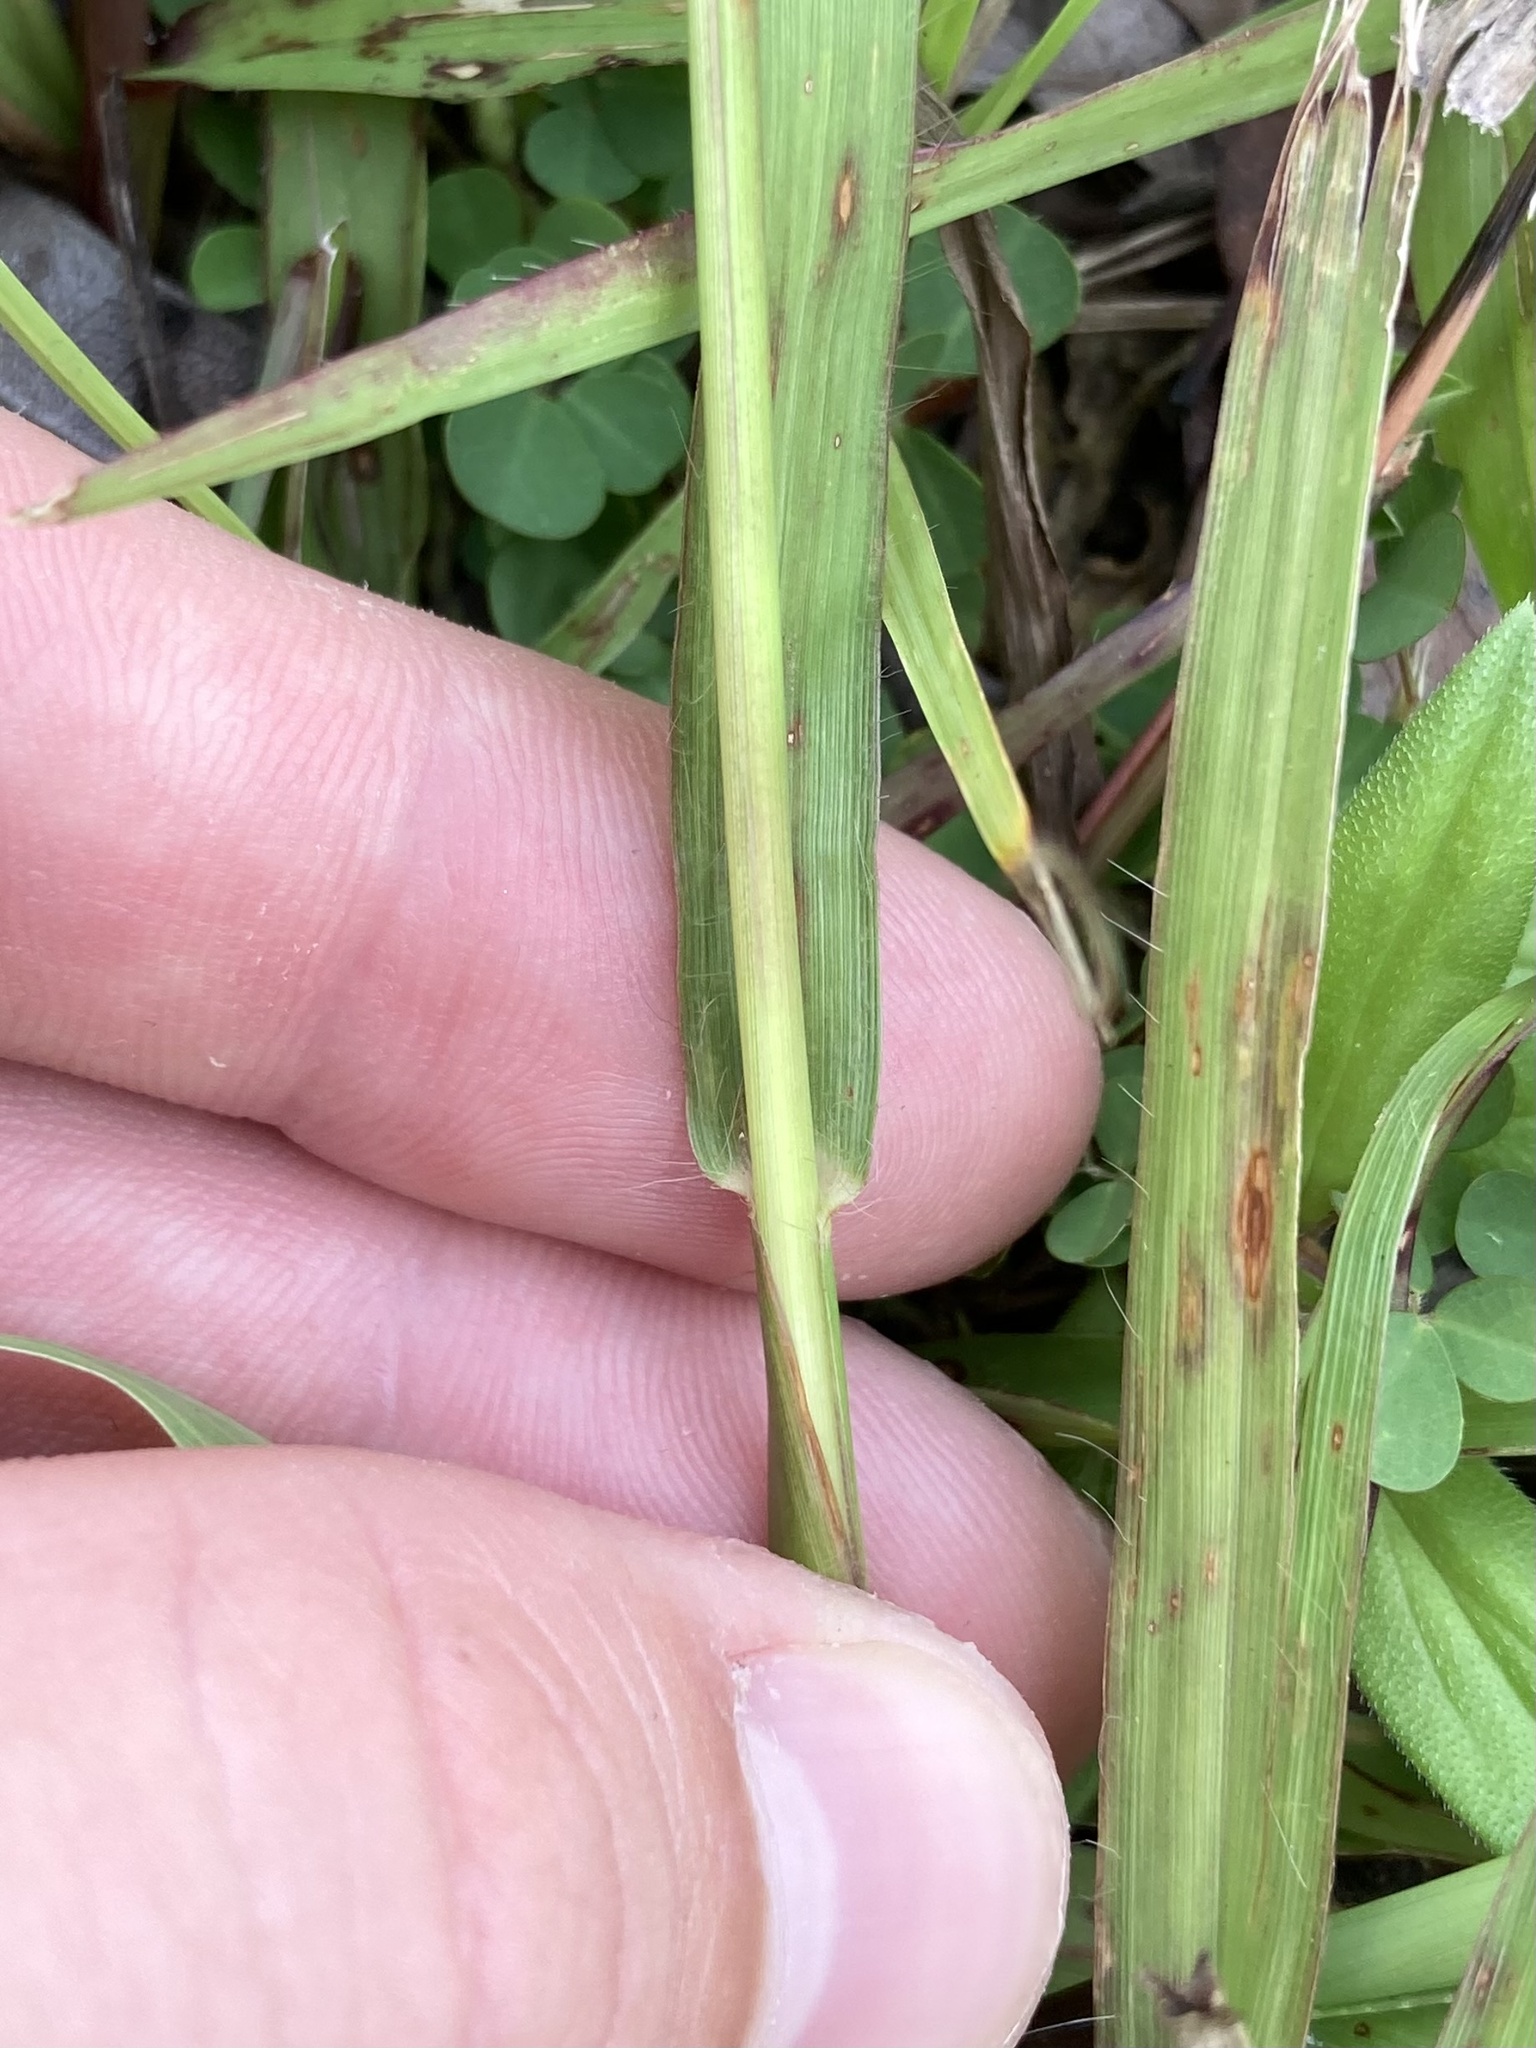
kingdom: Plantae
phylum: Tracheophyta
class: Liliopsida
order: Poales
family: Poaceae
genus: Paspalum
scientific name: Paspalum notatum
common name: Bahiagrass
